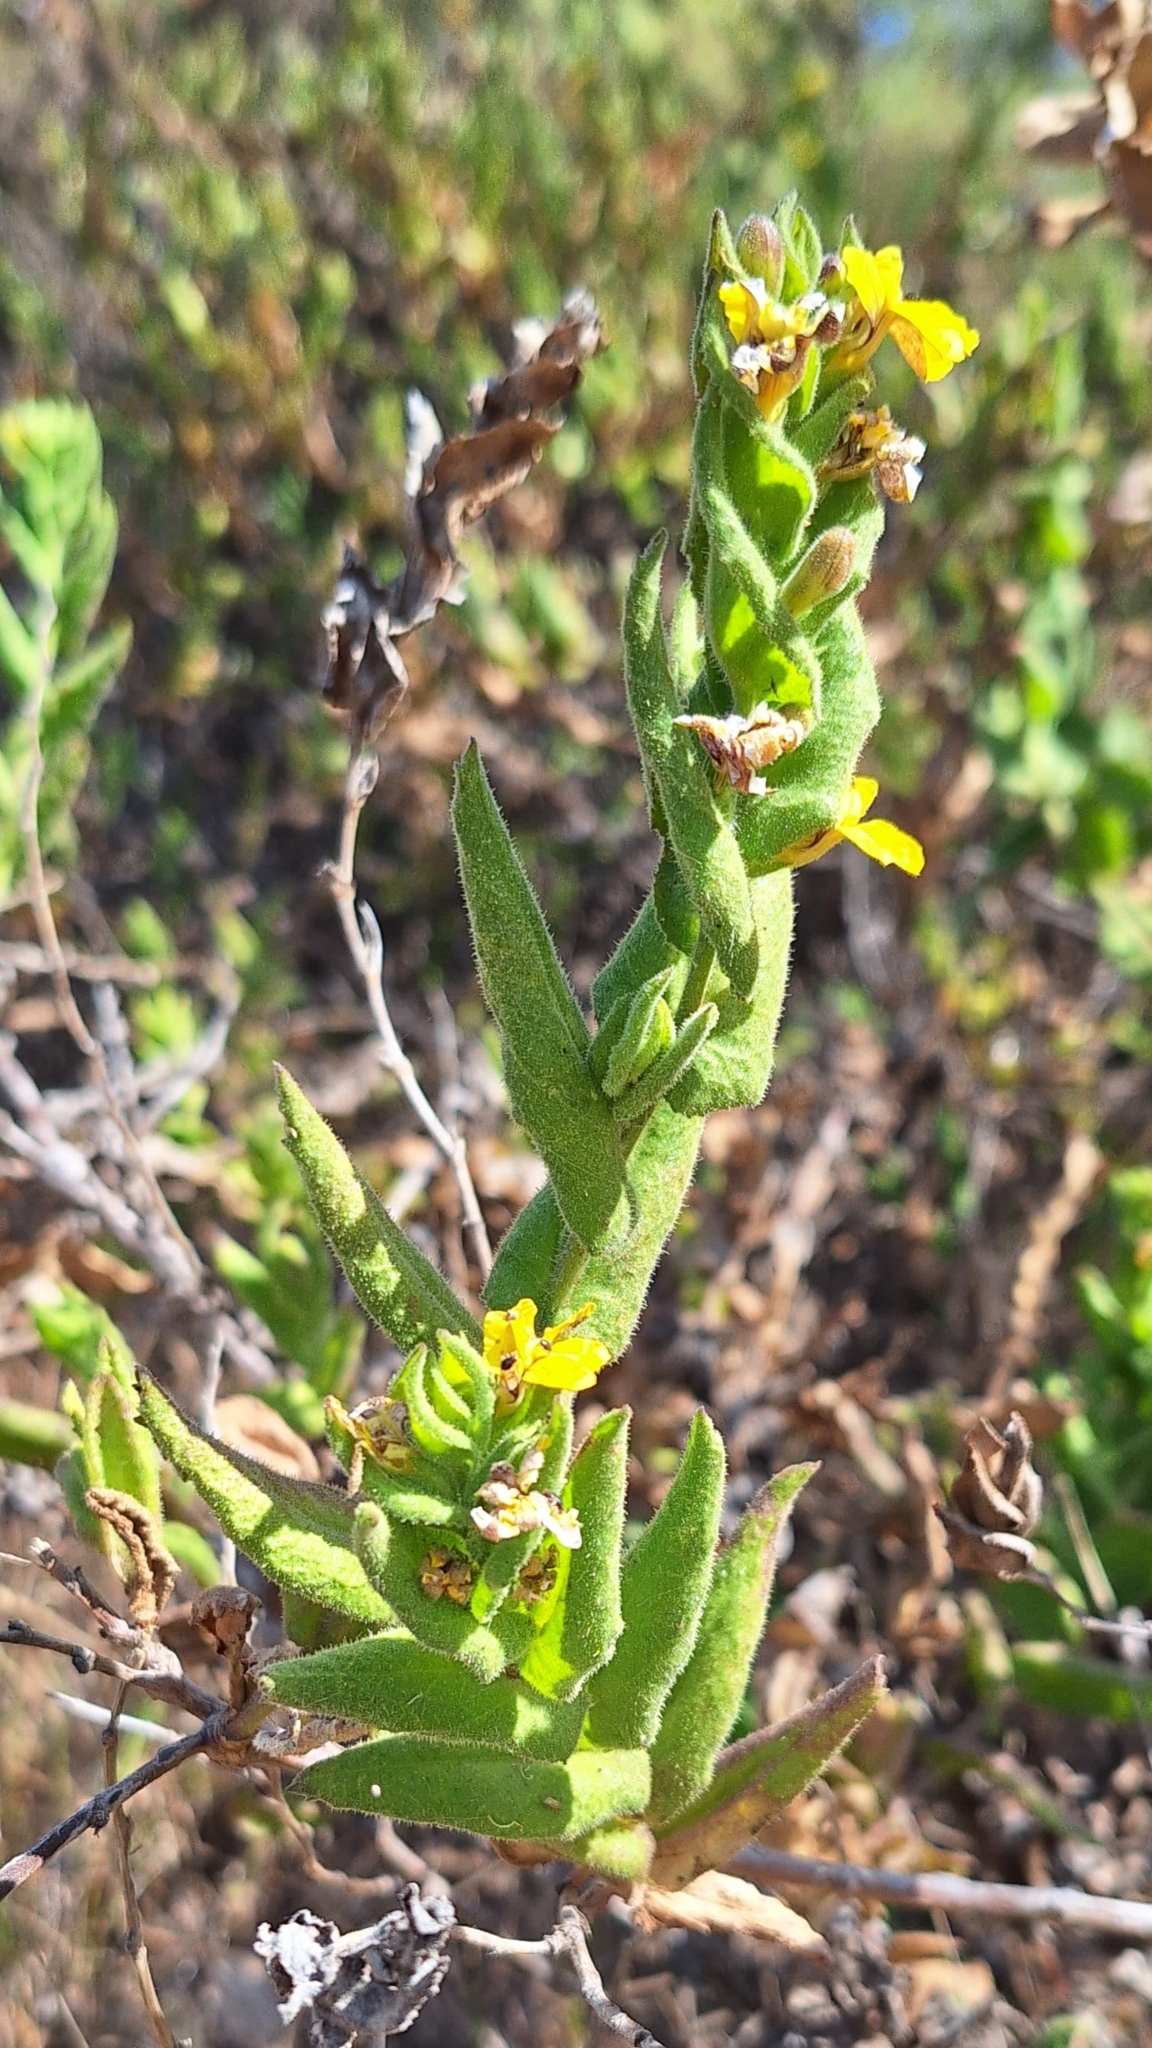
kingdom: Plantae
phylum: Tracheophyta
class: Magnoliopsida
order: Asterales
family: Goodeniaceae
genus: Goodenia
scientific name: Goodenia amplexans
